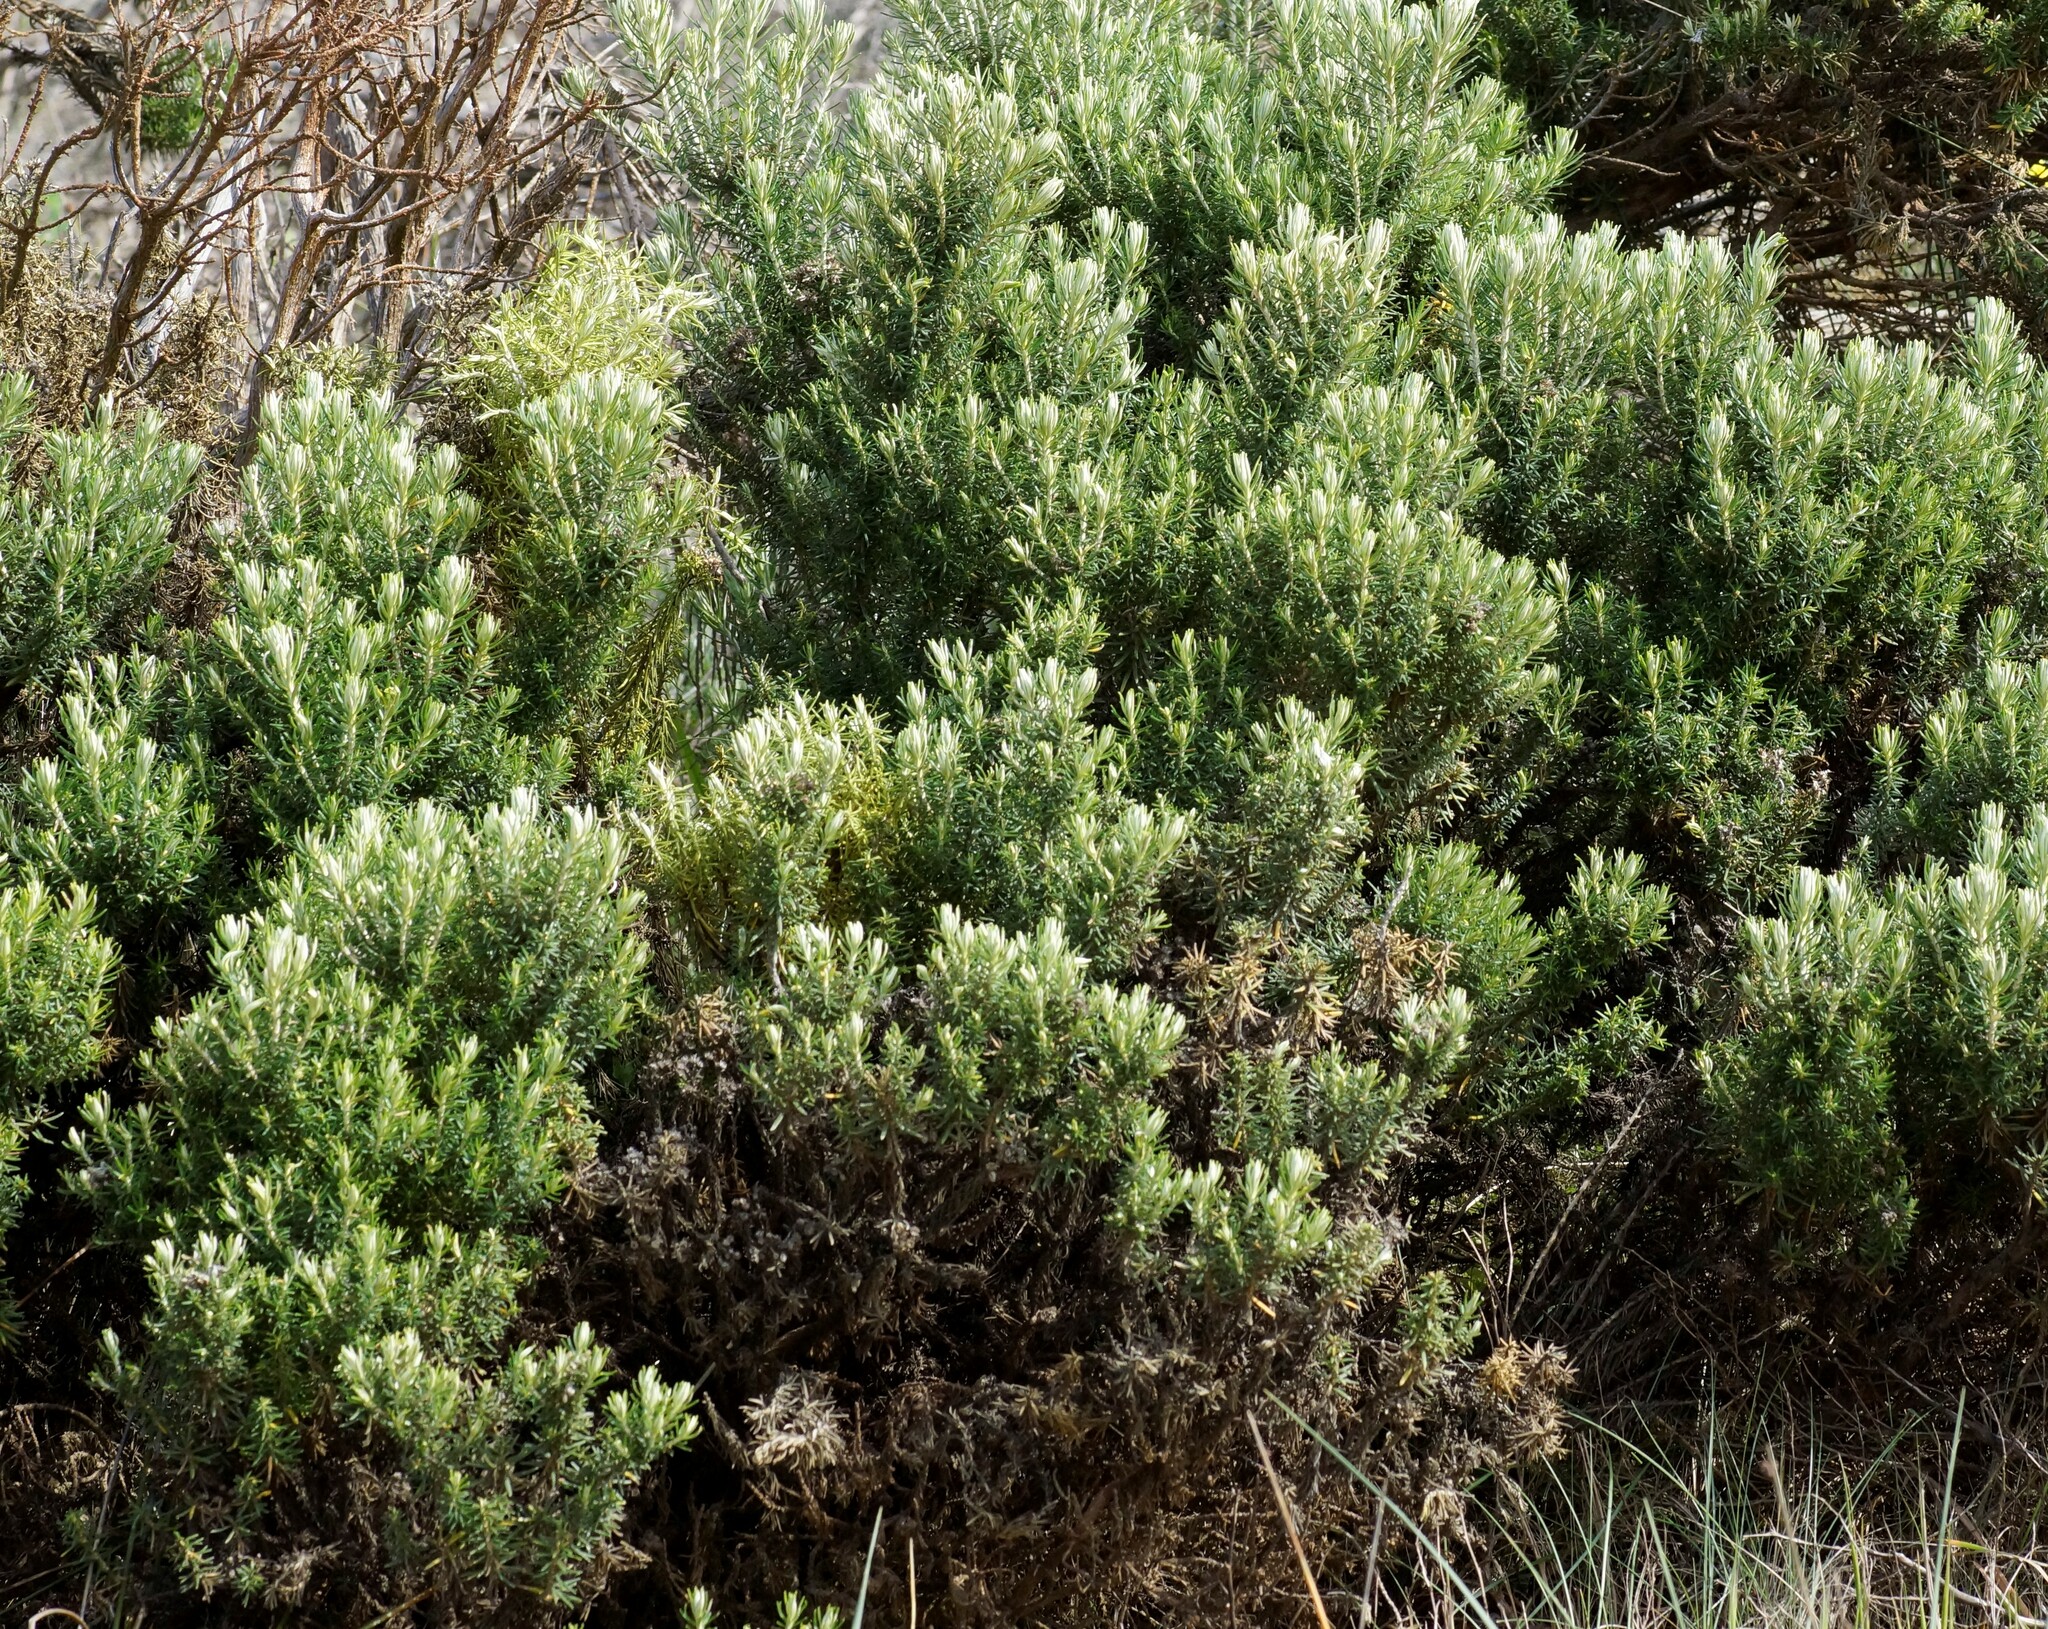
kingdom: Plantae
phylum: Tracheophyta
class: Magnoliopsida
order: Asterales
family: Asteraceae
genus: Olearia
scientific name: Olearia axillaris
